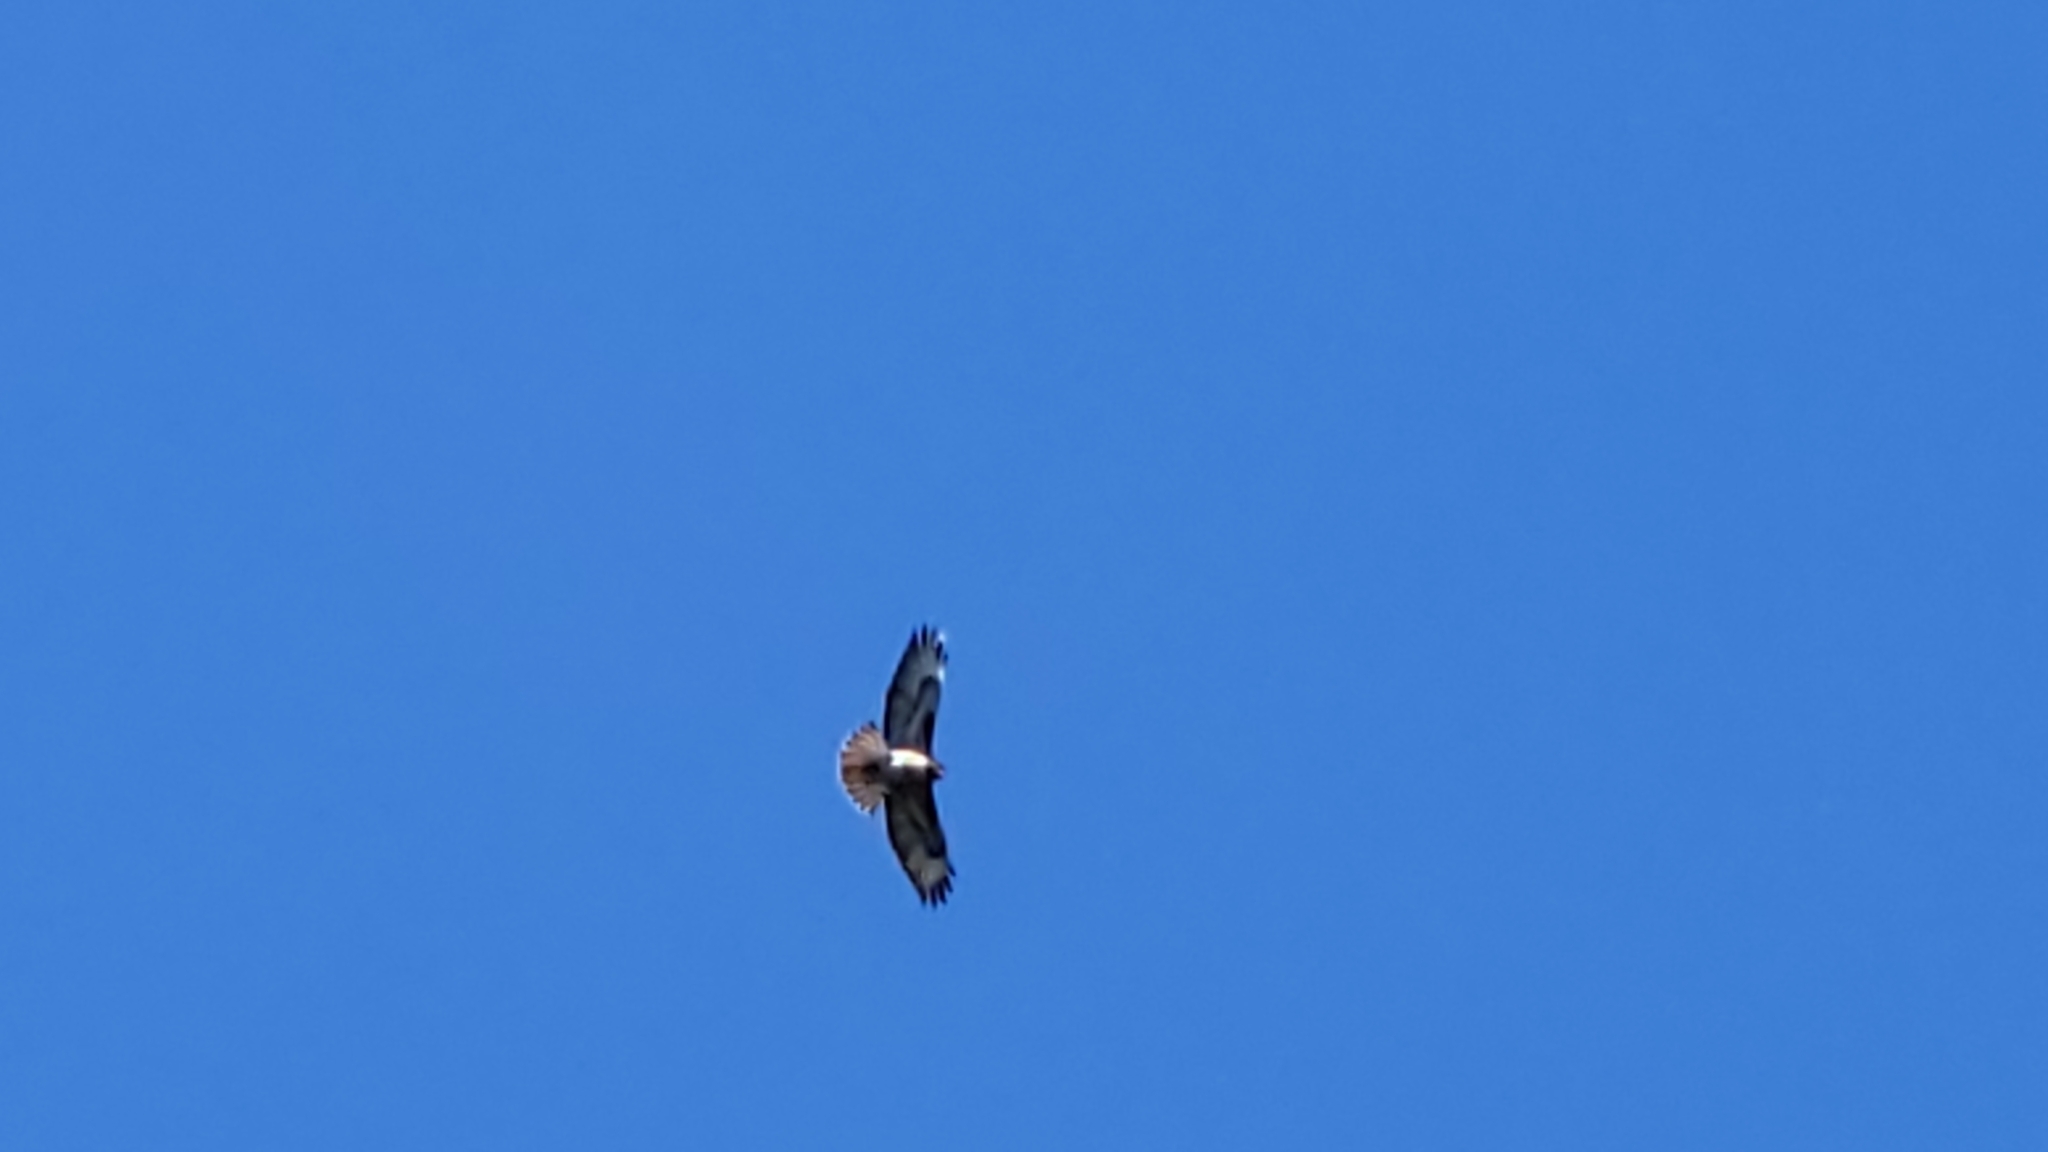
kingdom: Animalia
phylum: Chordata
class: Aves
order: Accipitriformes
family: Accipitridae
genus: Buteo
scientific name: Buteo jamaicensis
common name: Red-tailed hawk
